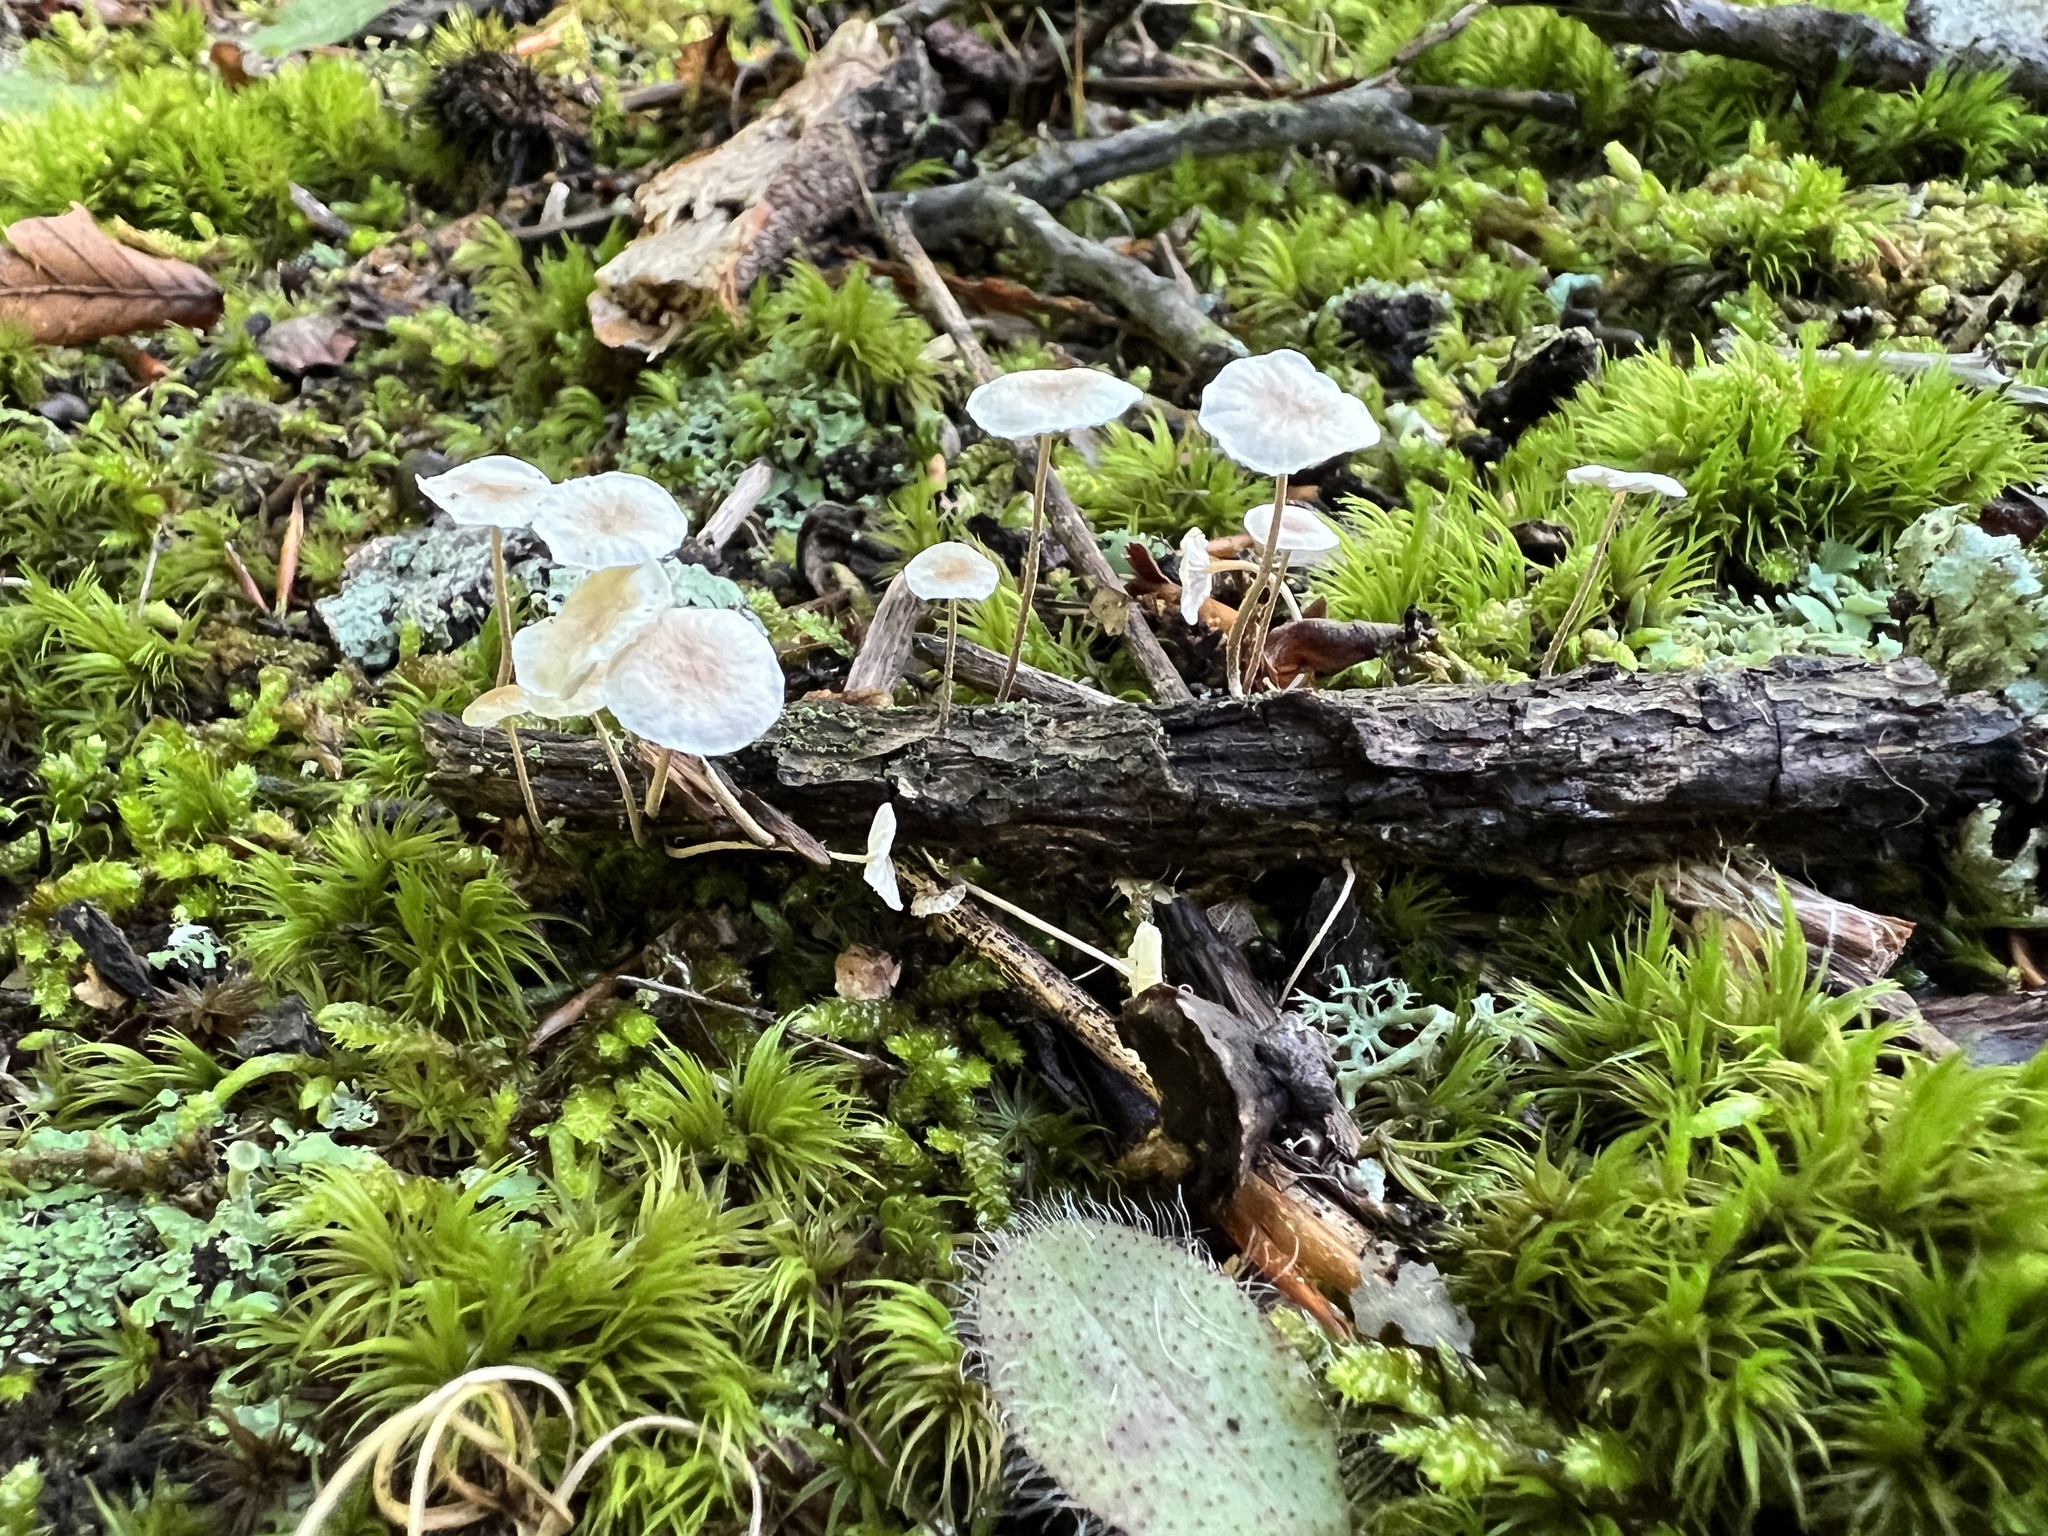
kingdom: Fungi
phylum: Basidiomycota
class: Agaricomycetes
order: Agaricales
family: Omphalotaceae
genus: Mycetinis
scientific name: Mycetinis opacus
